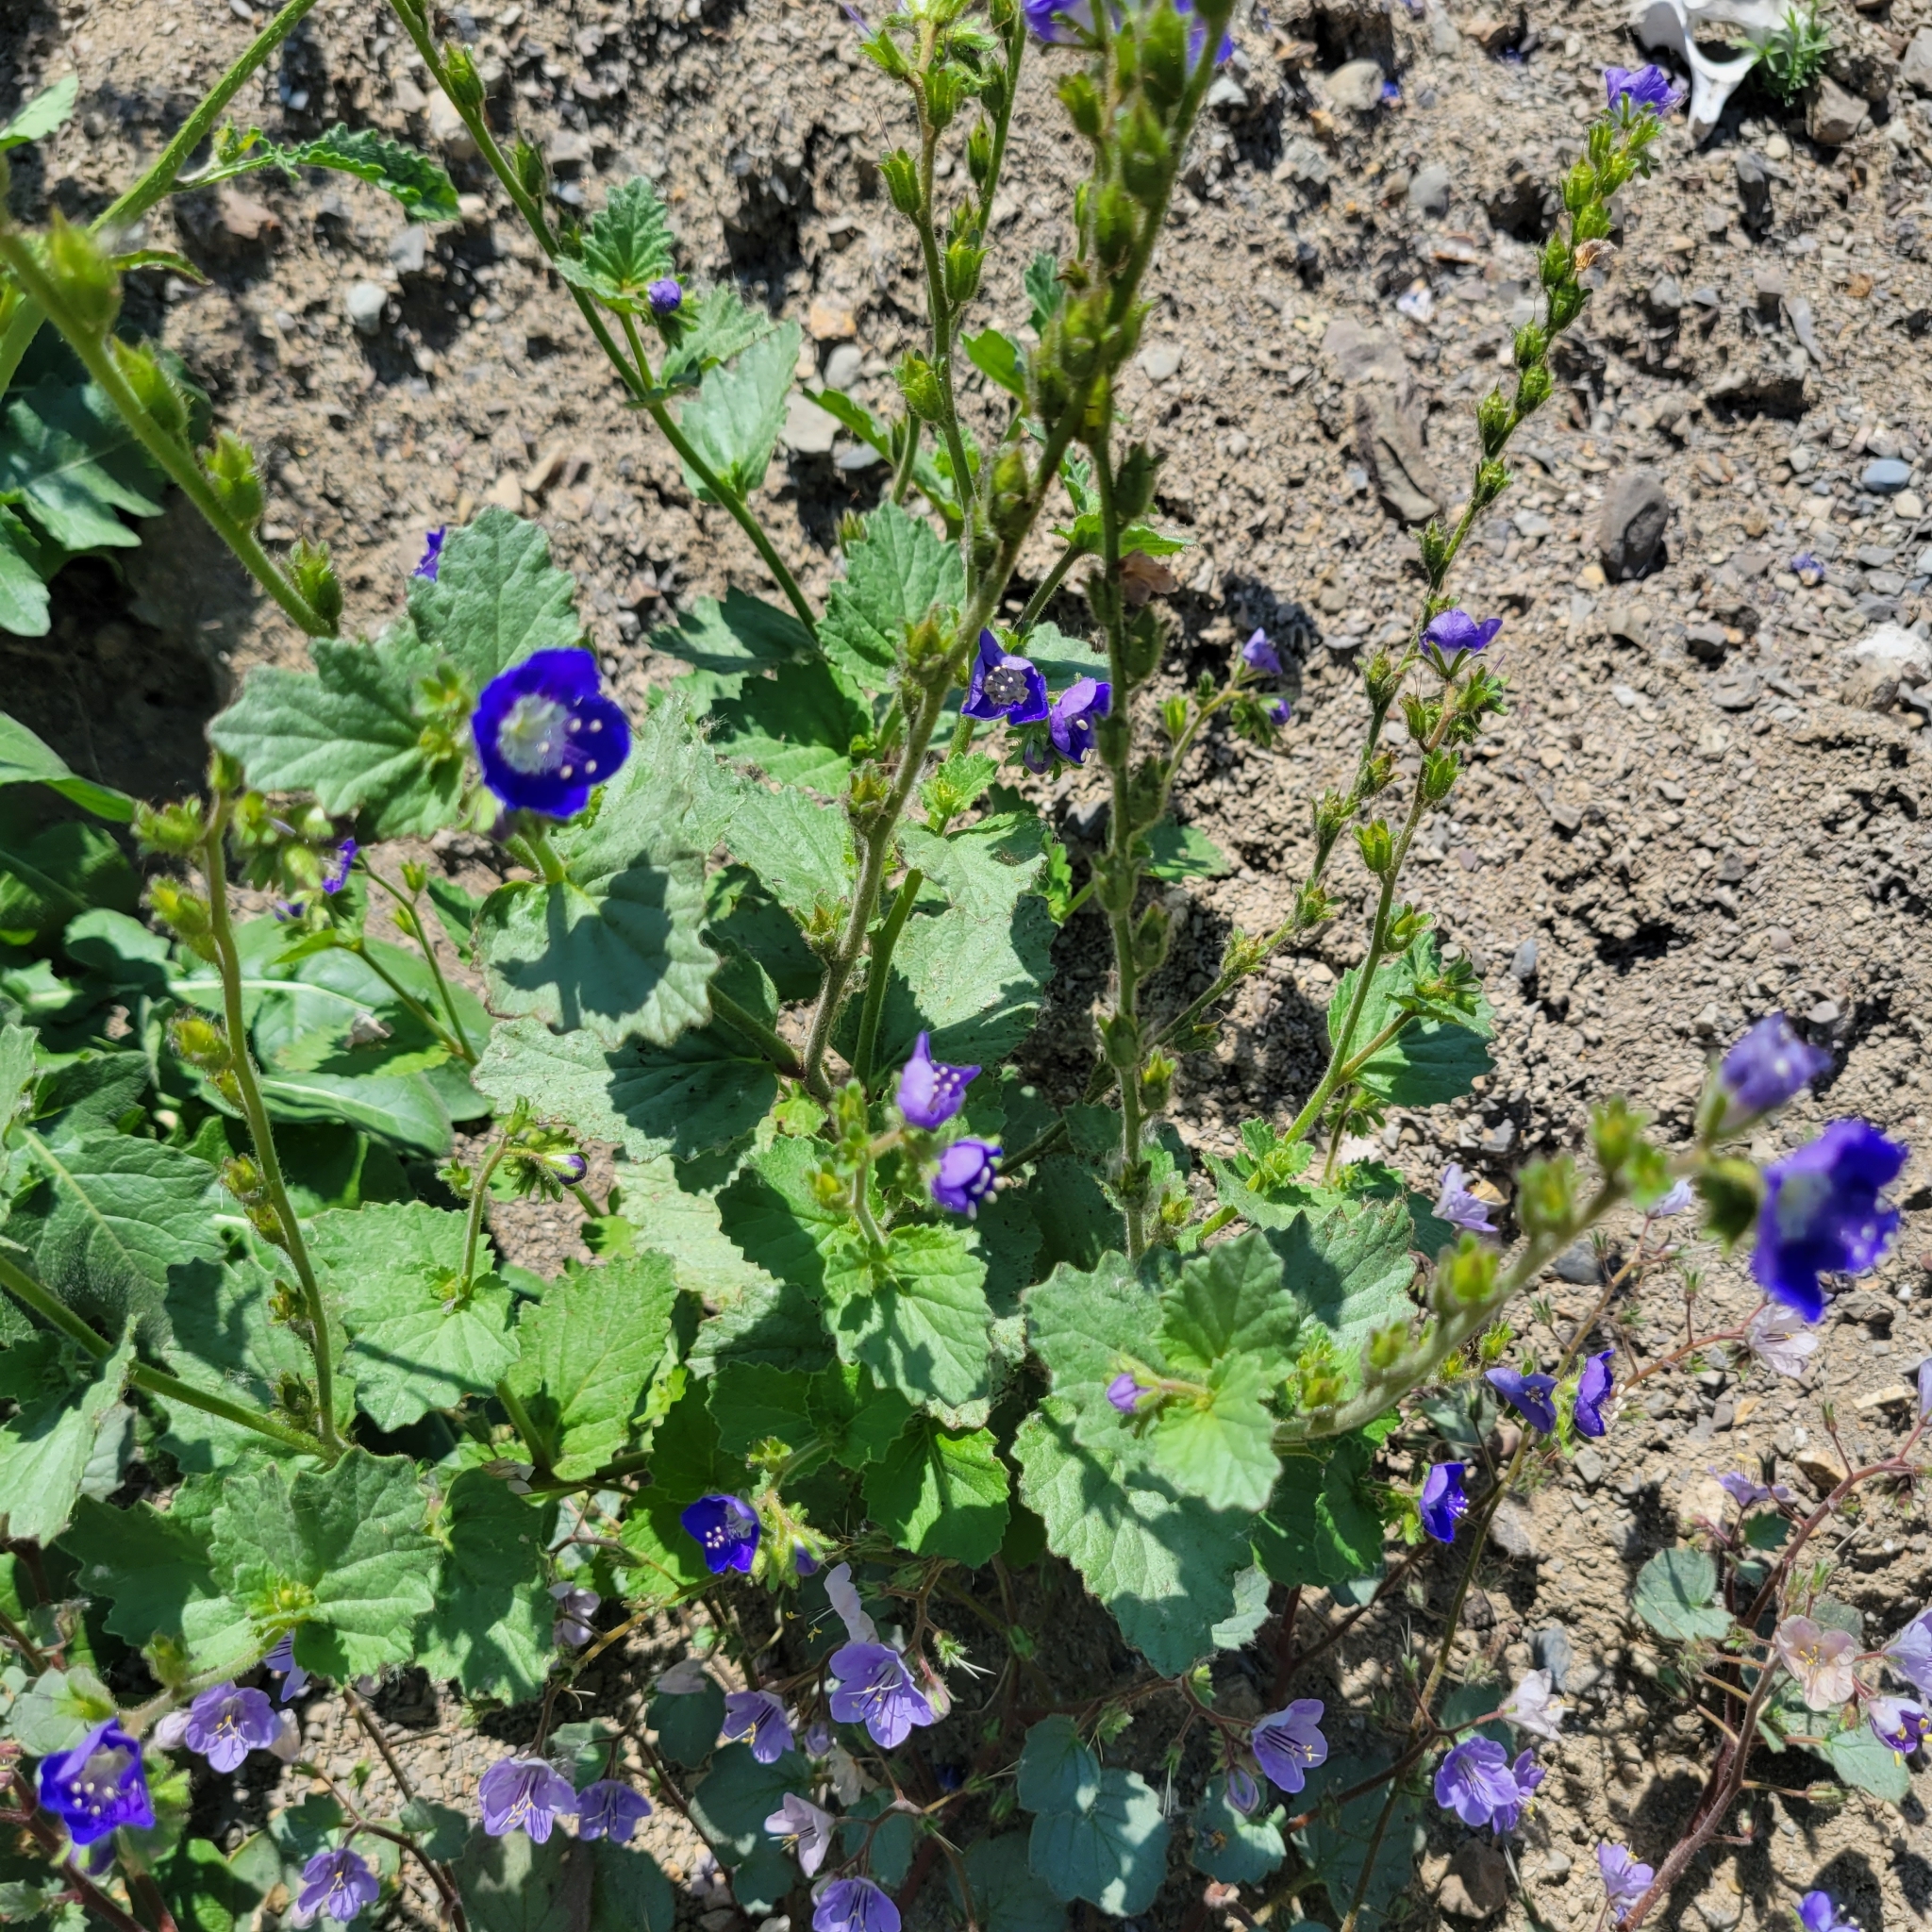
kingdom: Plantae
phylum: Tracheophyta
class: Magnoliopsida
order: Boraginales
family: Hydrophyllaceae
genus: Phacelia
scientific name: Phacelia viscida
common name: Sticky phacelia
